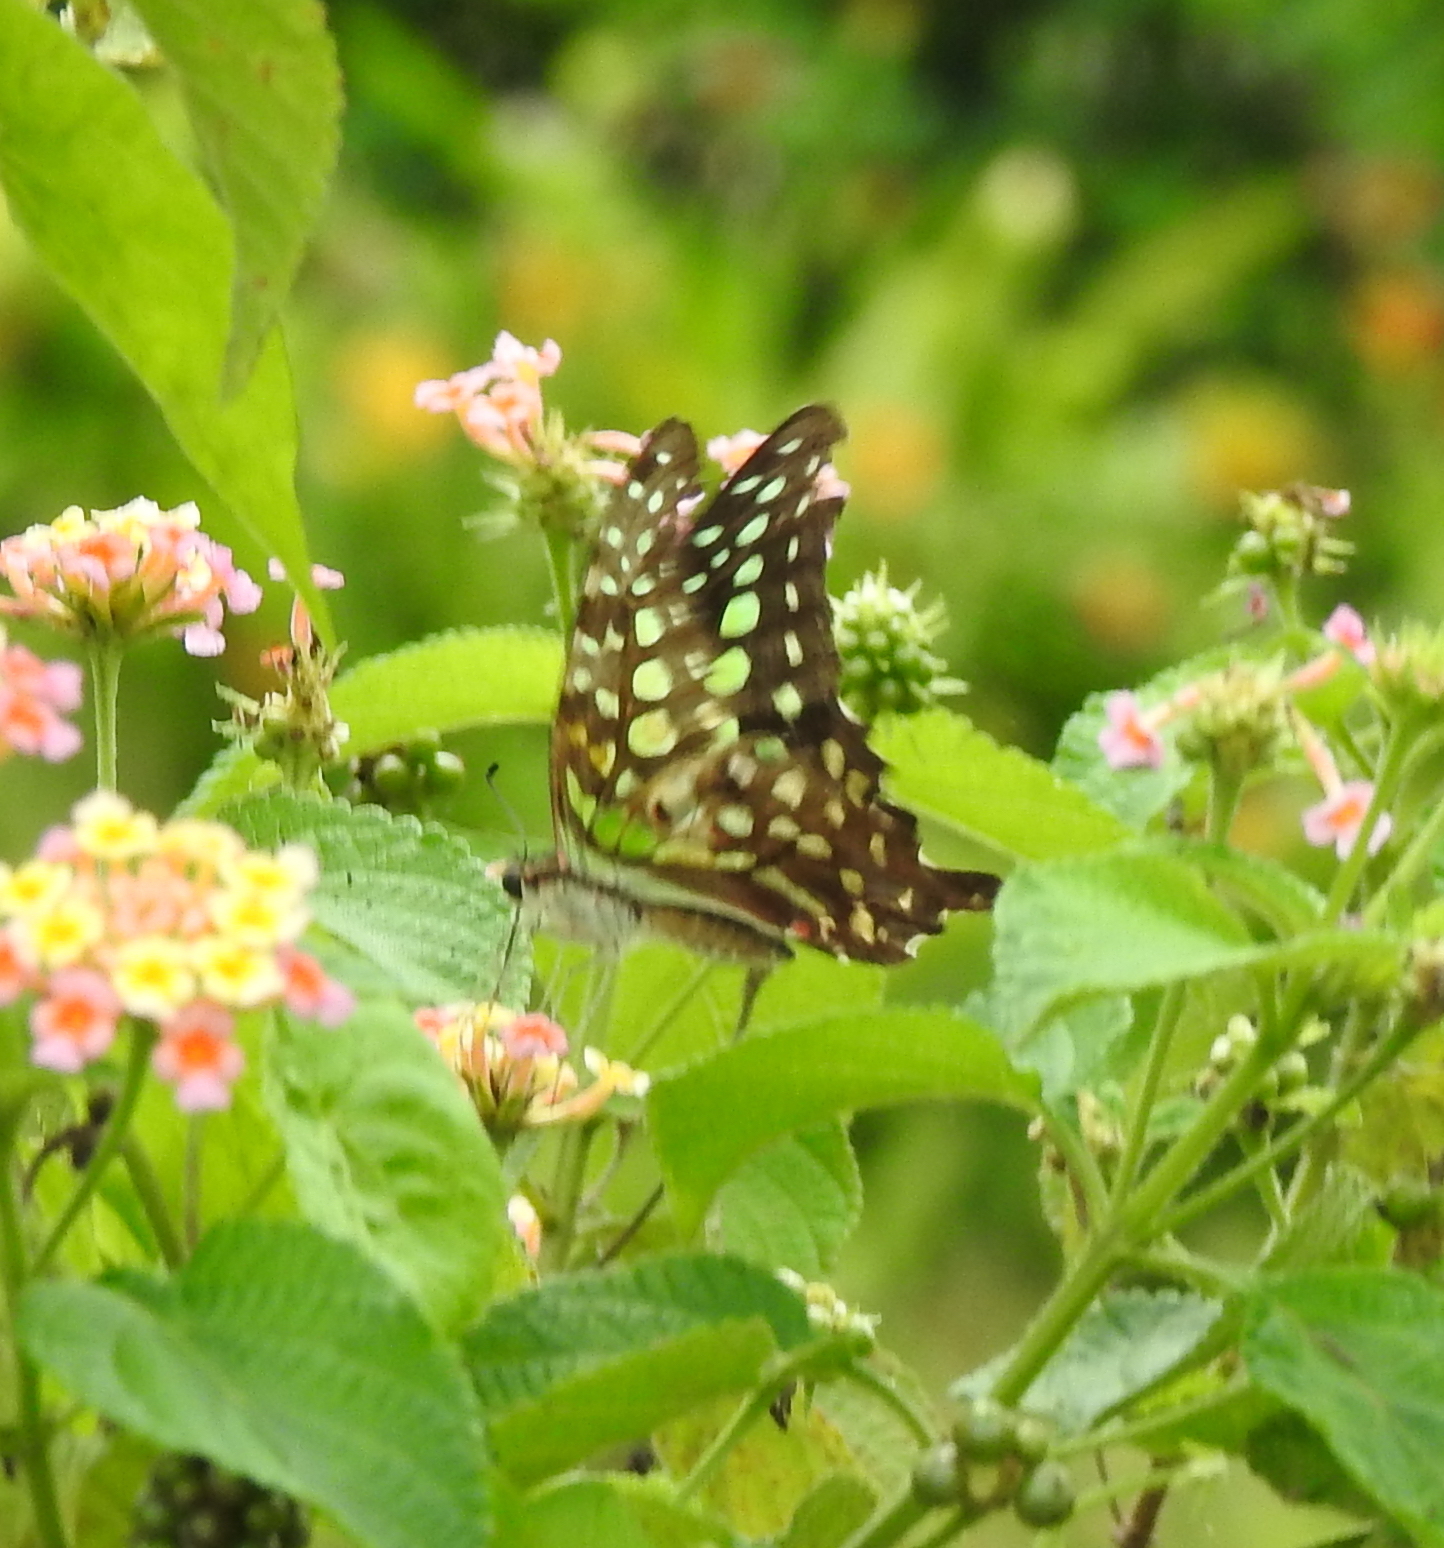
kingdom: Animalia
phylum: Arthropoda
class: Insecta
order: Lepidoptera
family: Papilionidae
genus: Graphium
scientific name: Graphium agamemnon
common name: Tailed jay
